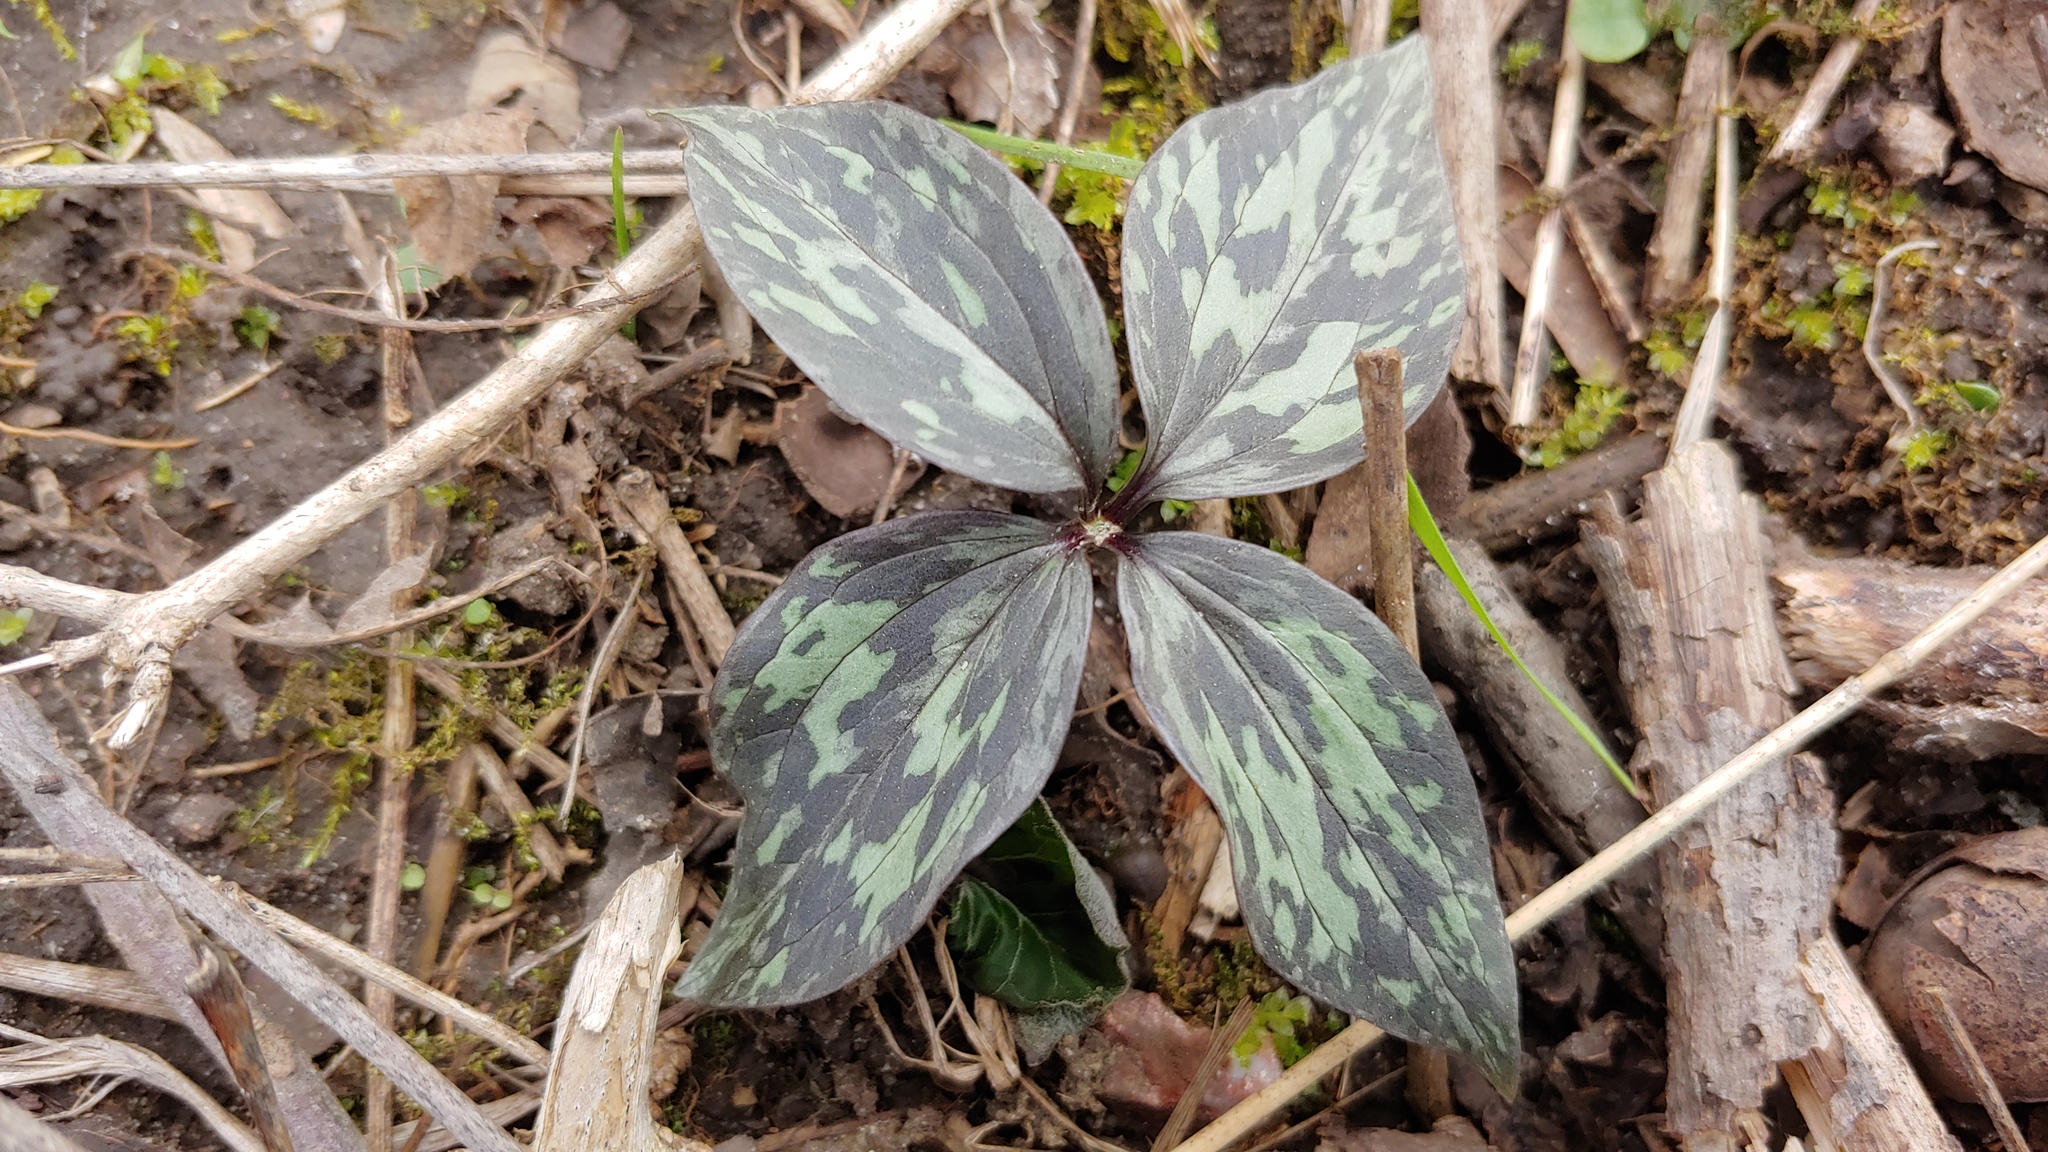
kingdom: Plantae
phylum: Tracheophyta
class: Liliopsida
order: Liliales
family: Melanthiaceae
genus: Trillium
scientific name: Trillium recurvatum
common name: Bloody butcher
